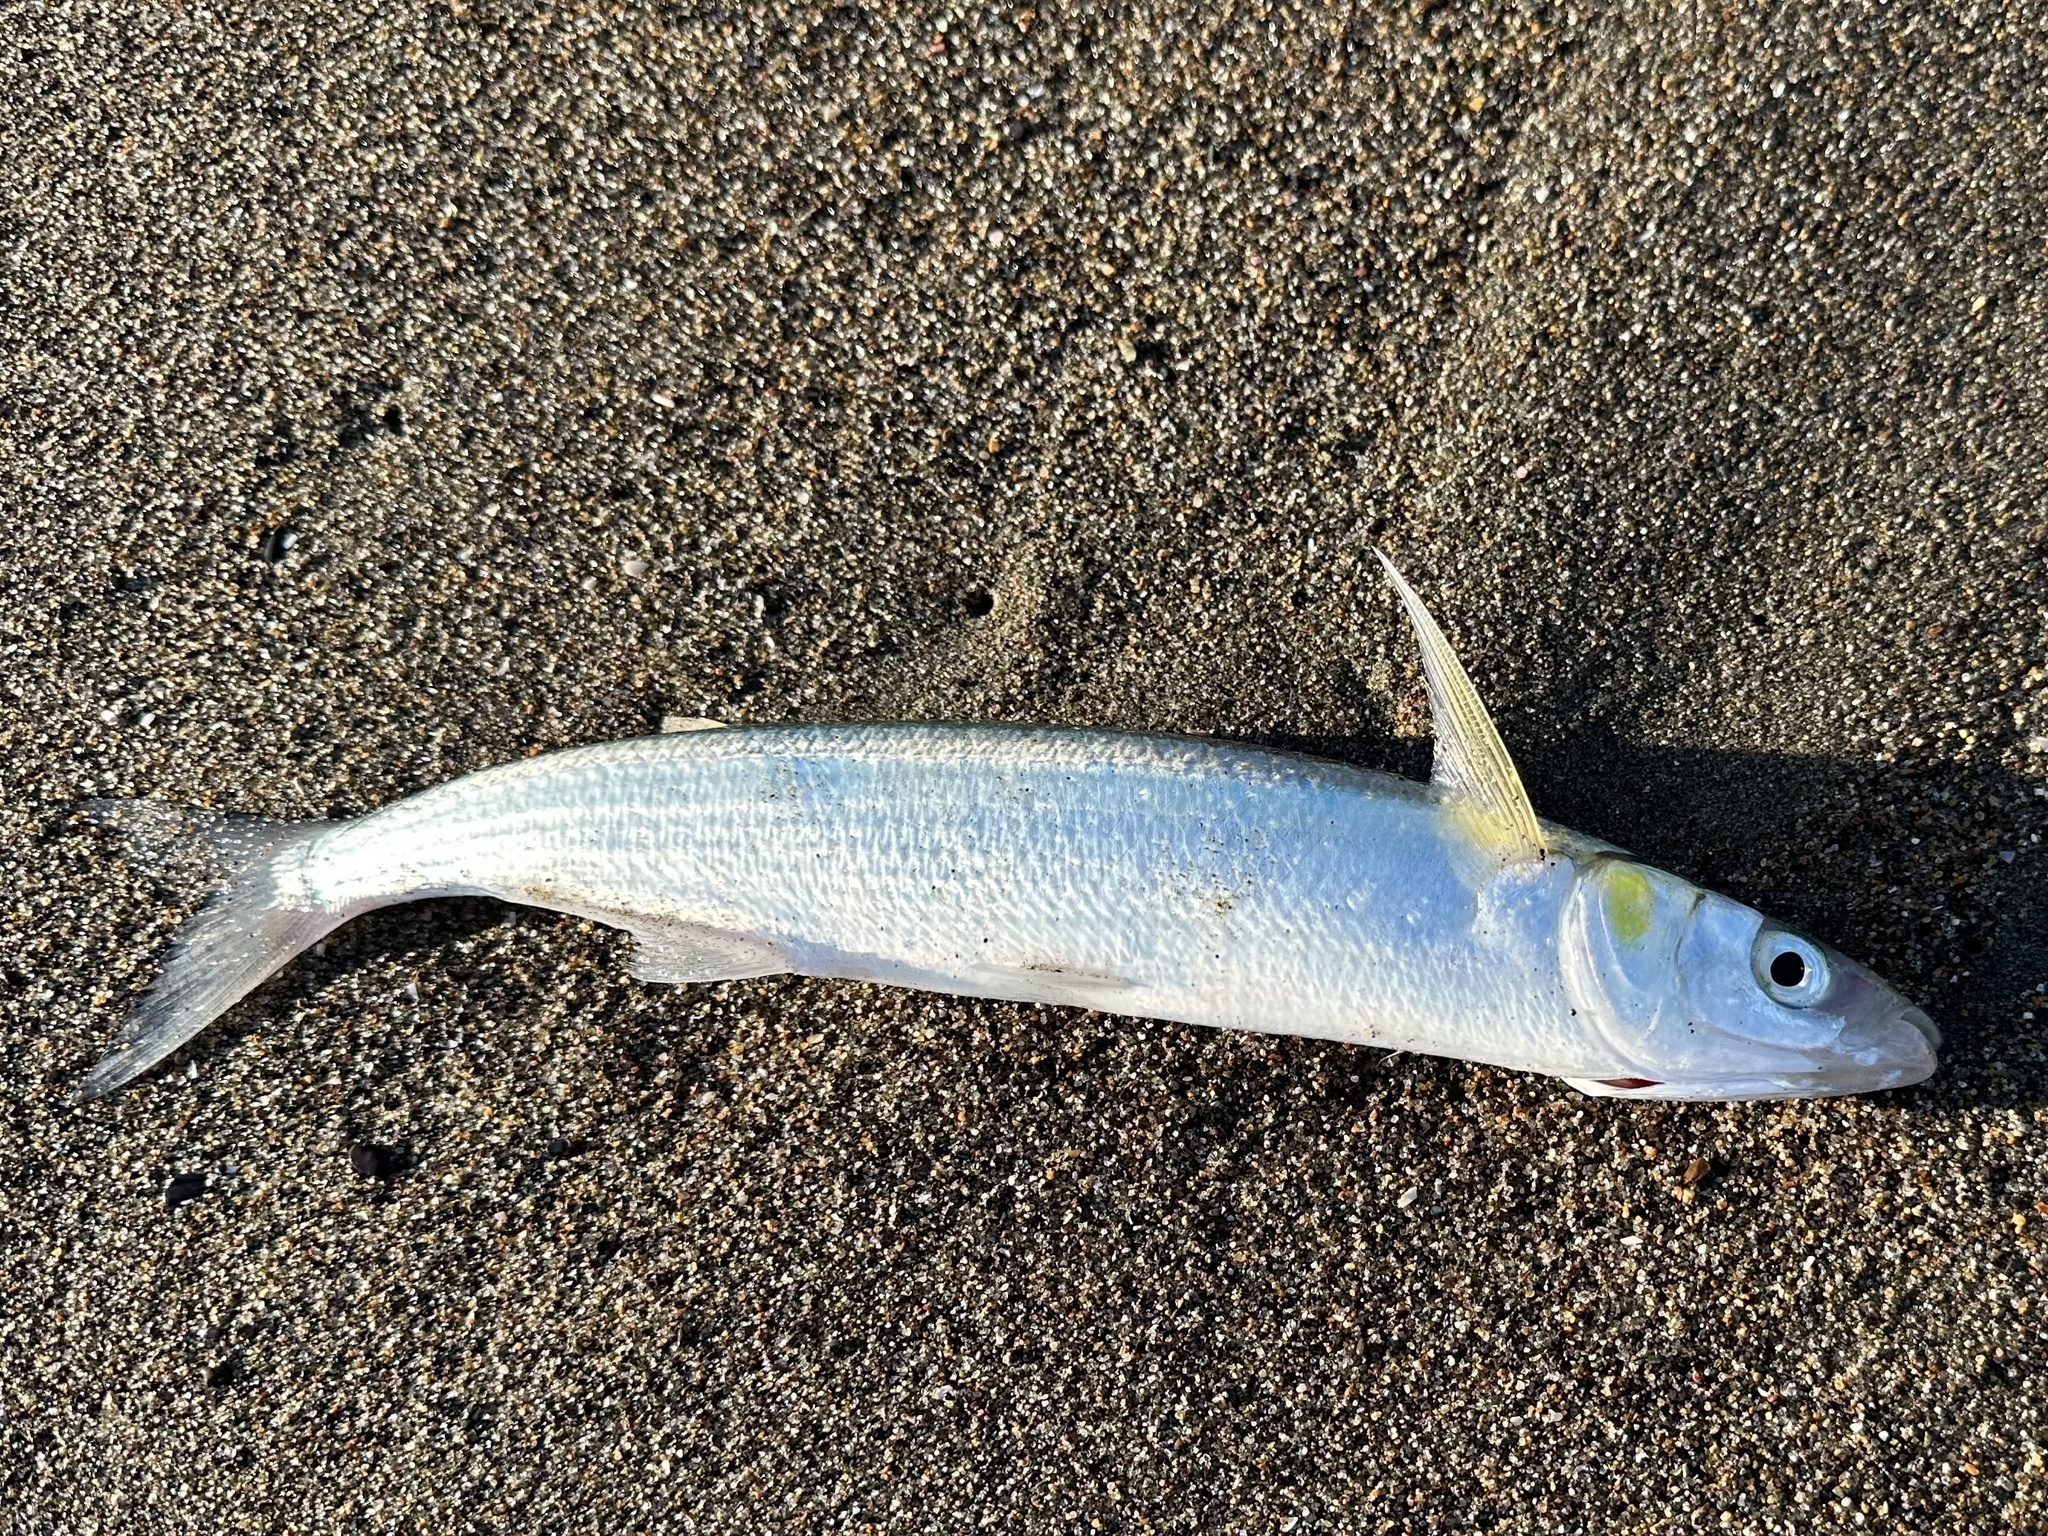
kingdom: Animalia
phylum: Chordata
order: Atheriniformes
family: Atherinopsidae
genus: Atherinopsis
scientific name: Atherinopsis californiensis
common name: Jack silverside
